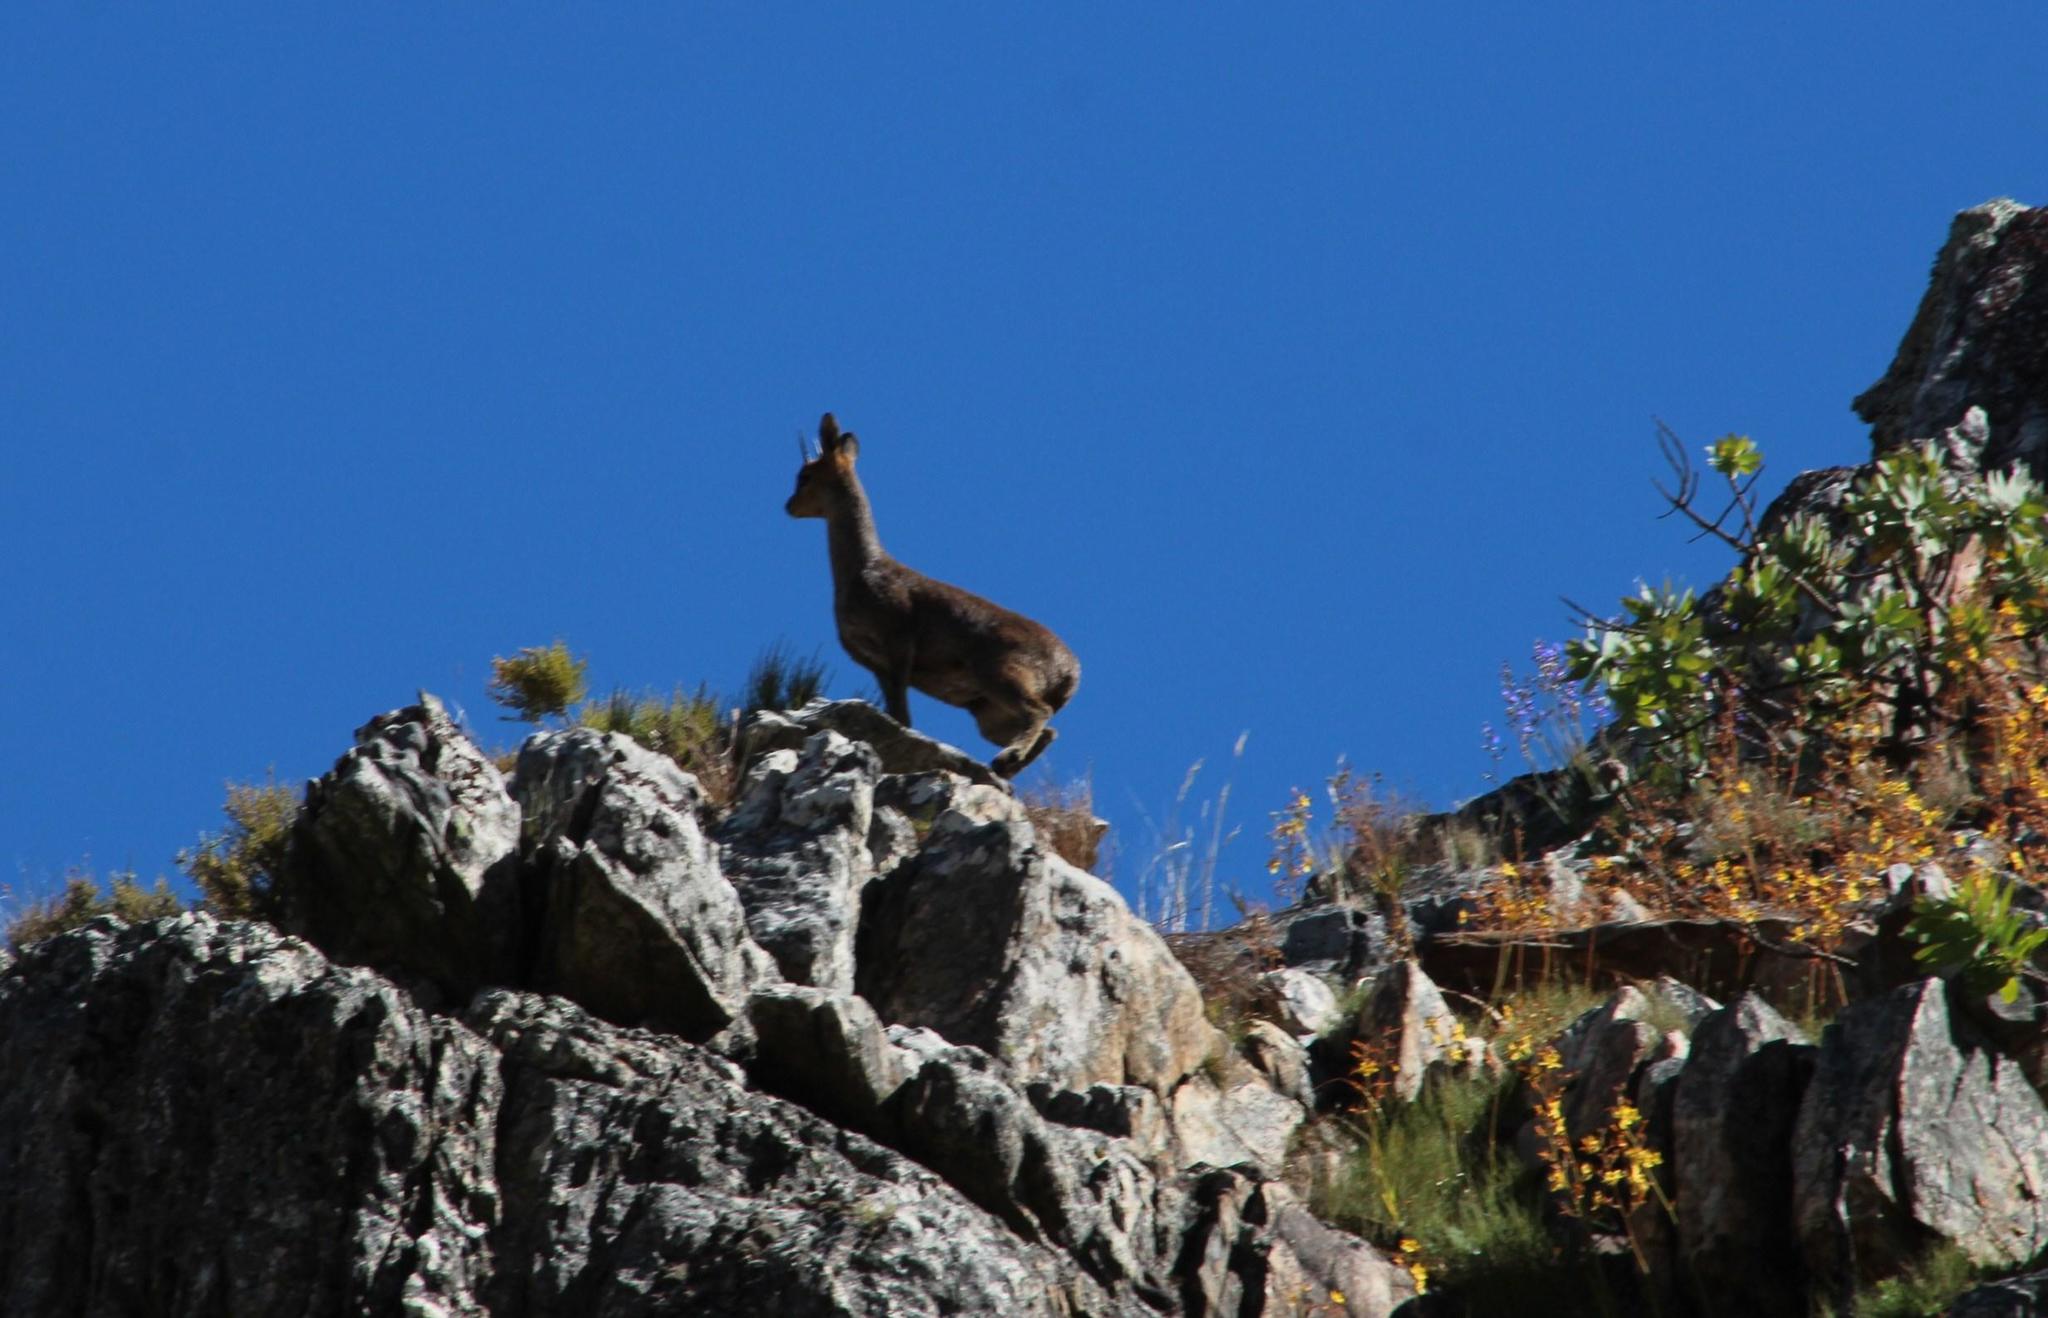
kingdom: Animalia
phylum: Chordata
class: Mammalia
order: Artiodactyla
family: Bovidae
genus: Oreotragus
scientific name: Oreotragus oreotragus
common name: Klipspringer
